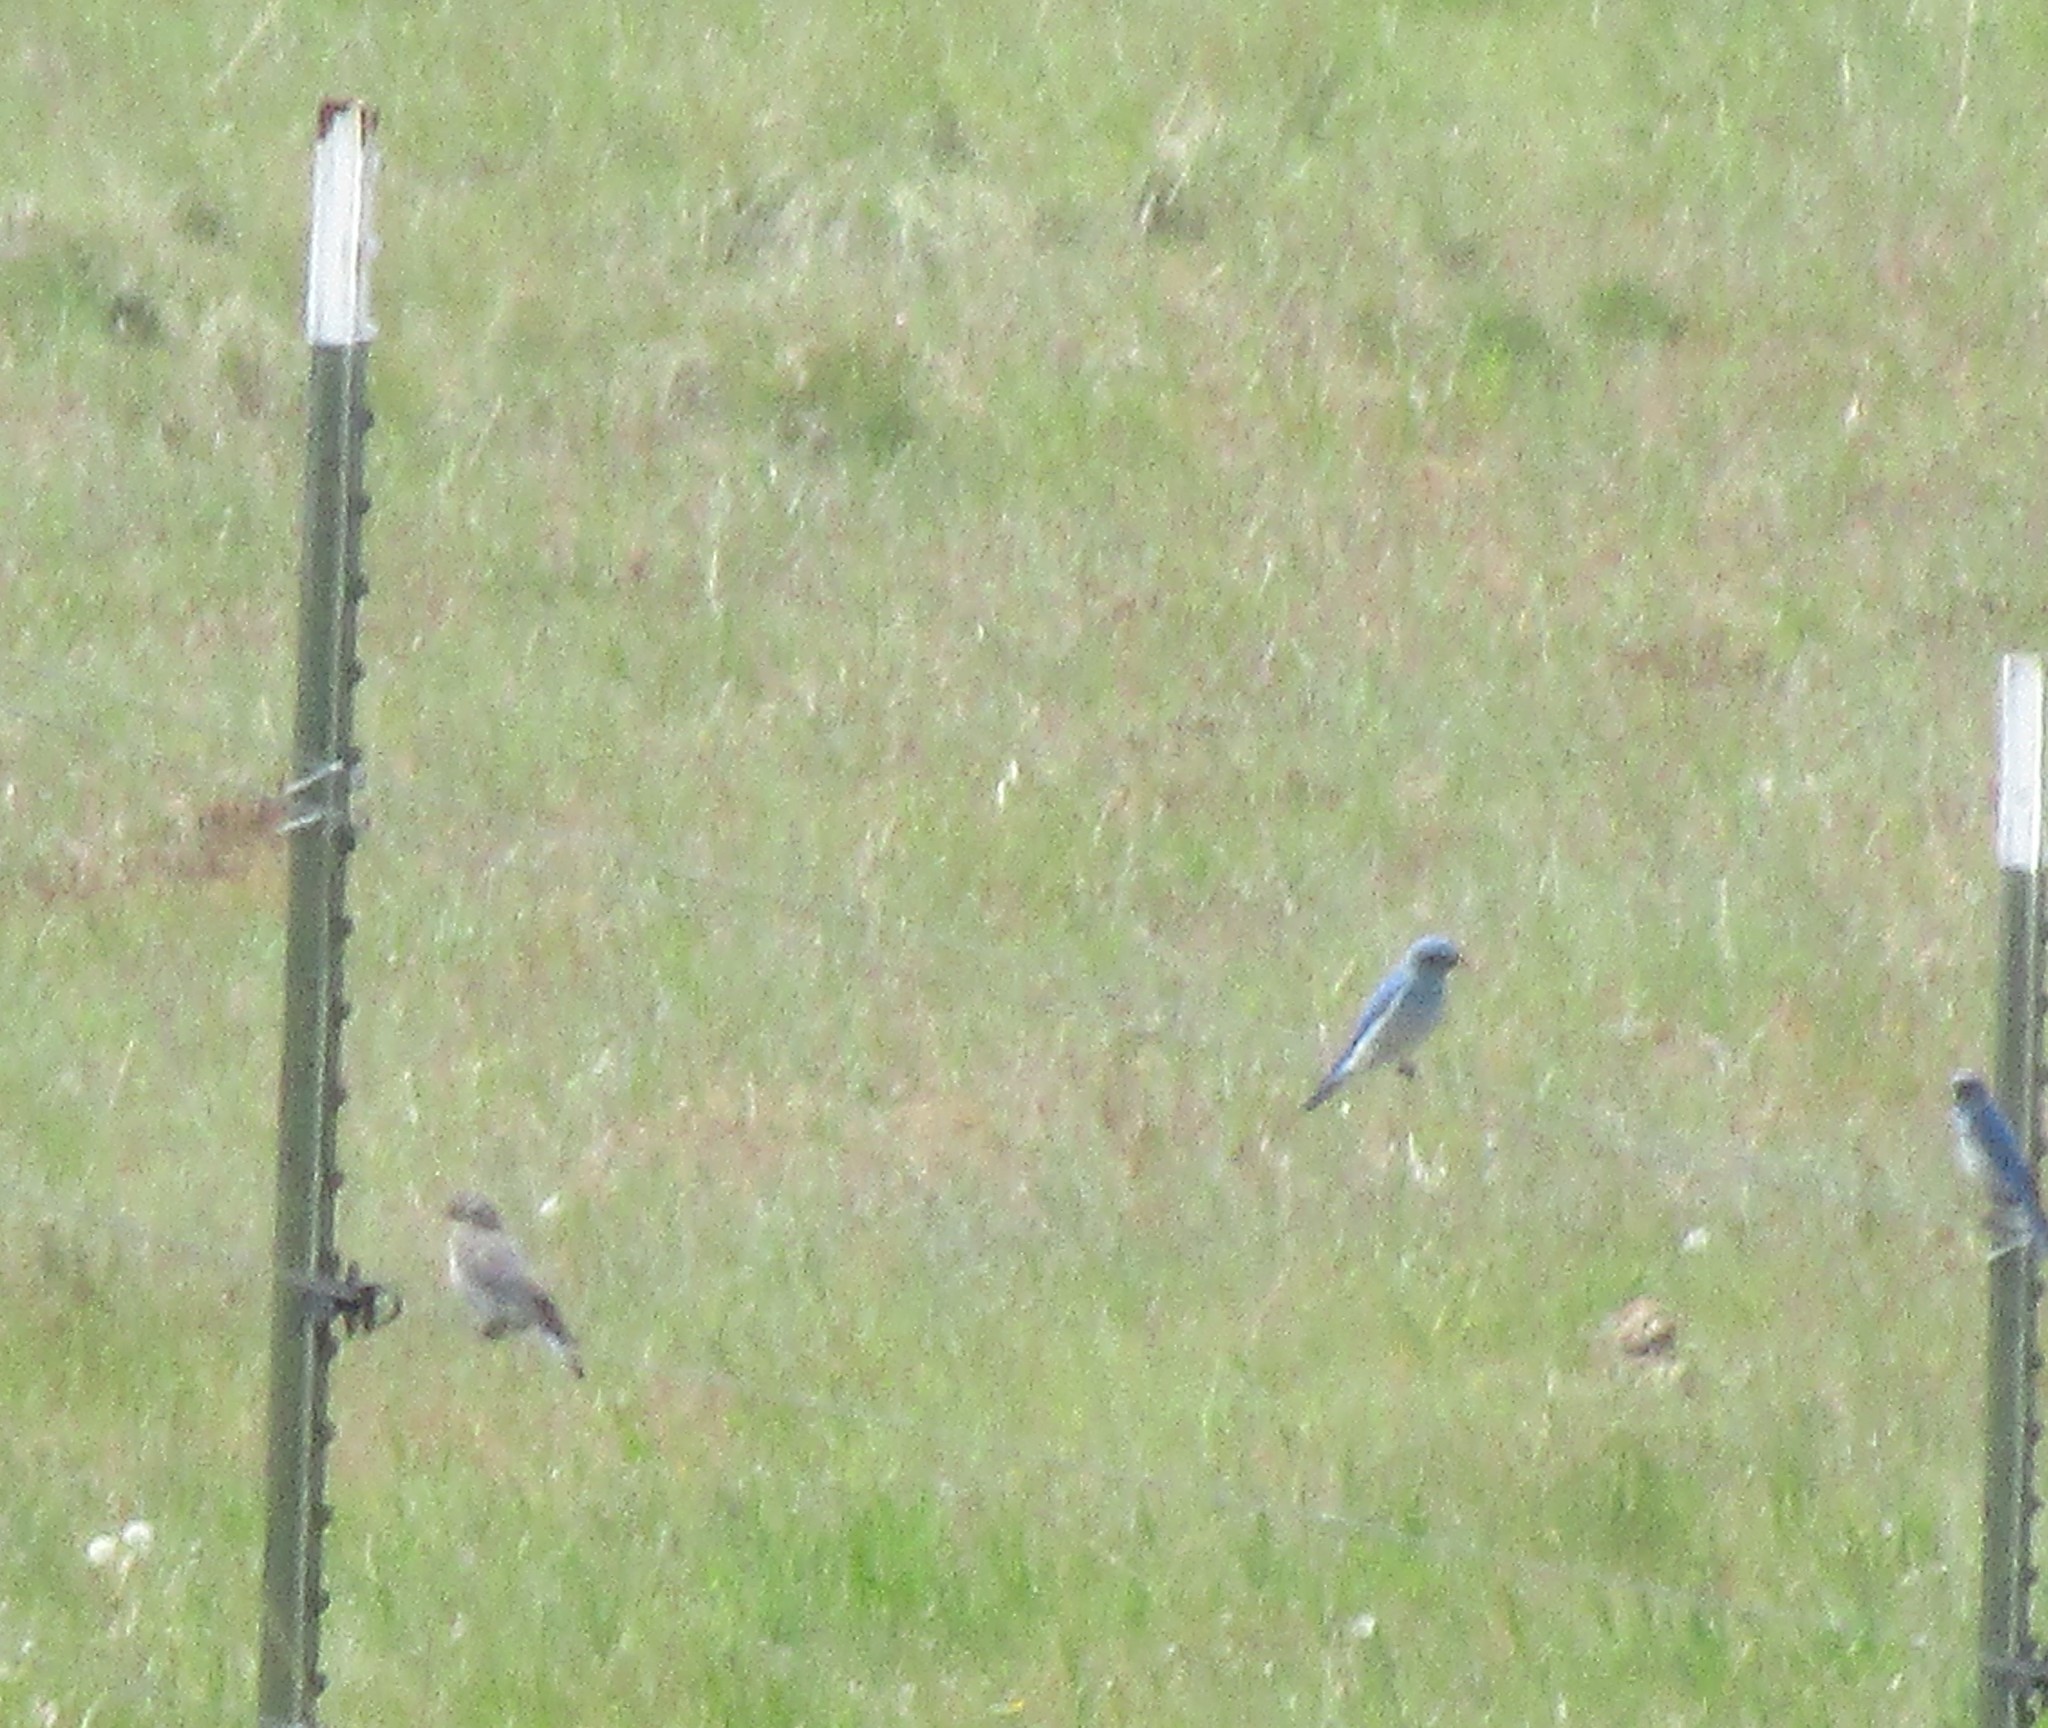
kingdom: Animalia
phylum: Chordata
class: Aves
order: Passeriformes
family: Turdidae
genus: Sialia
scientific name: Sialia currucoides
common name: Mountain bluebird
